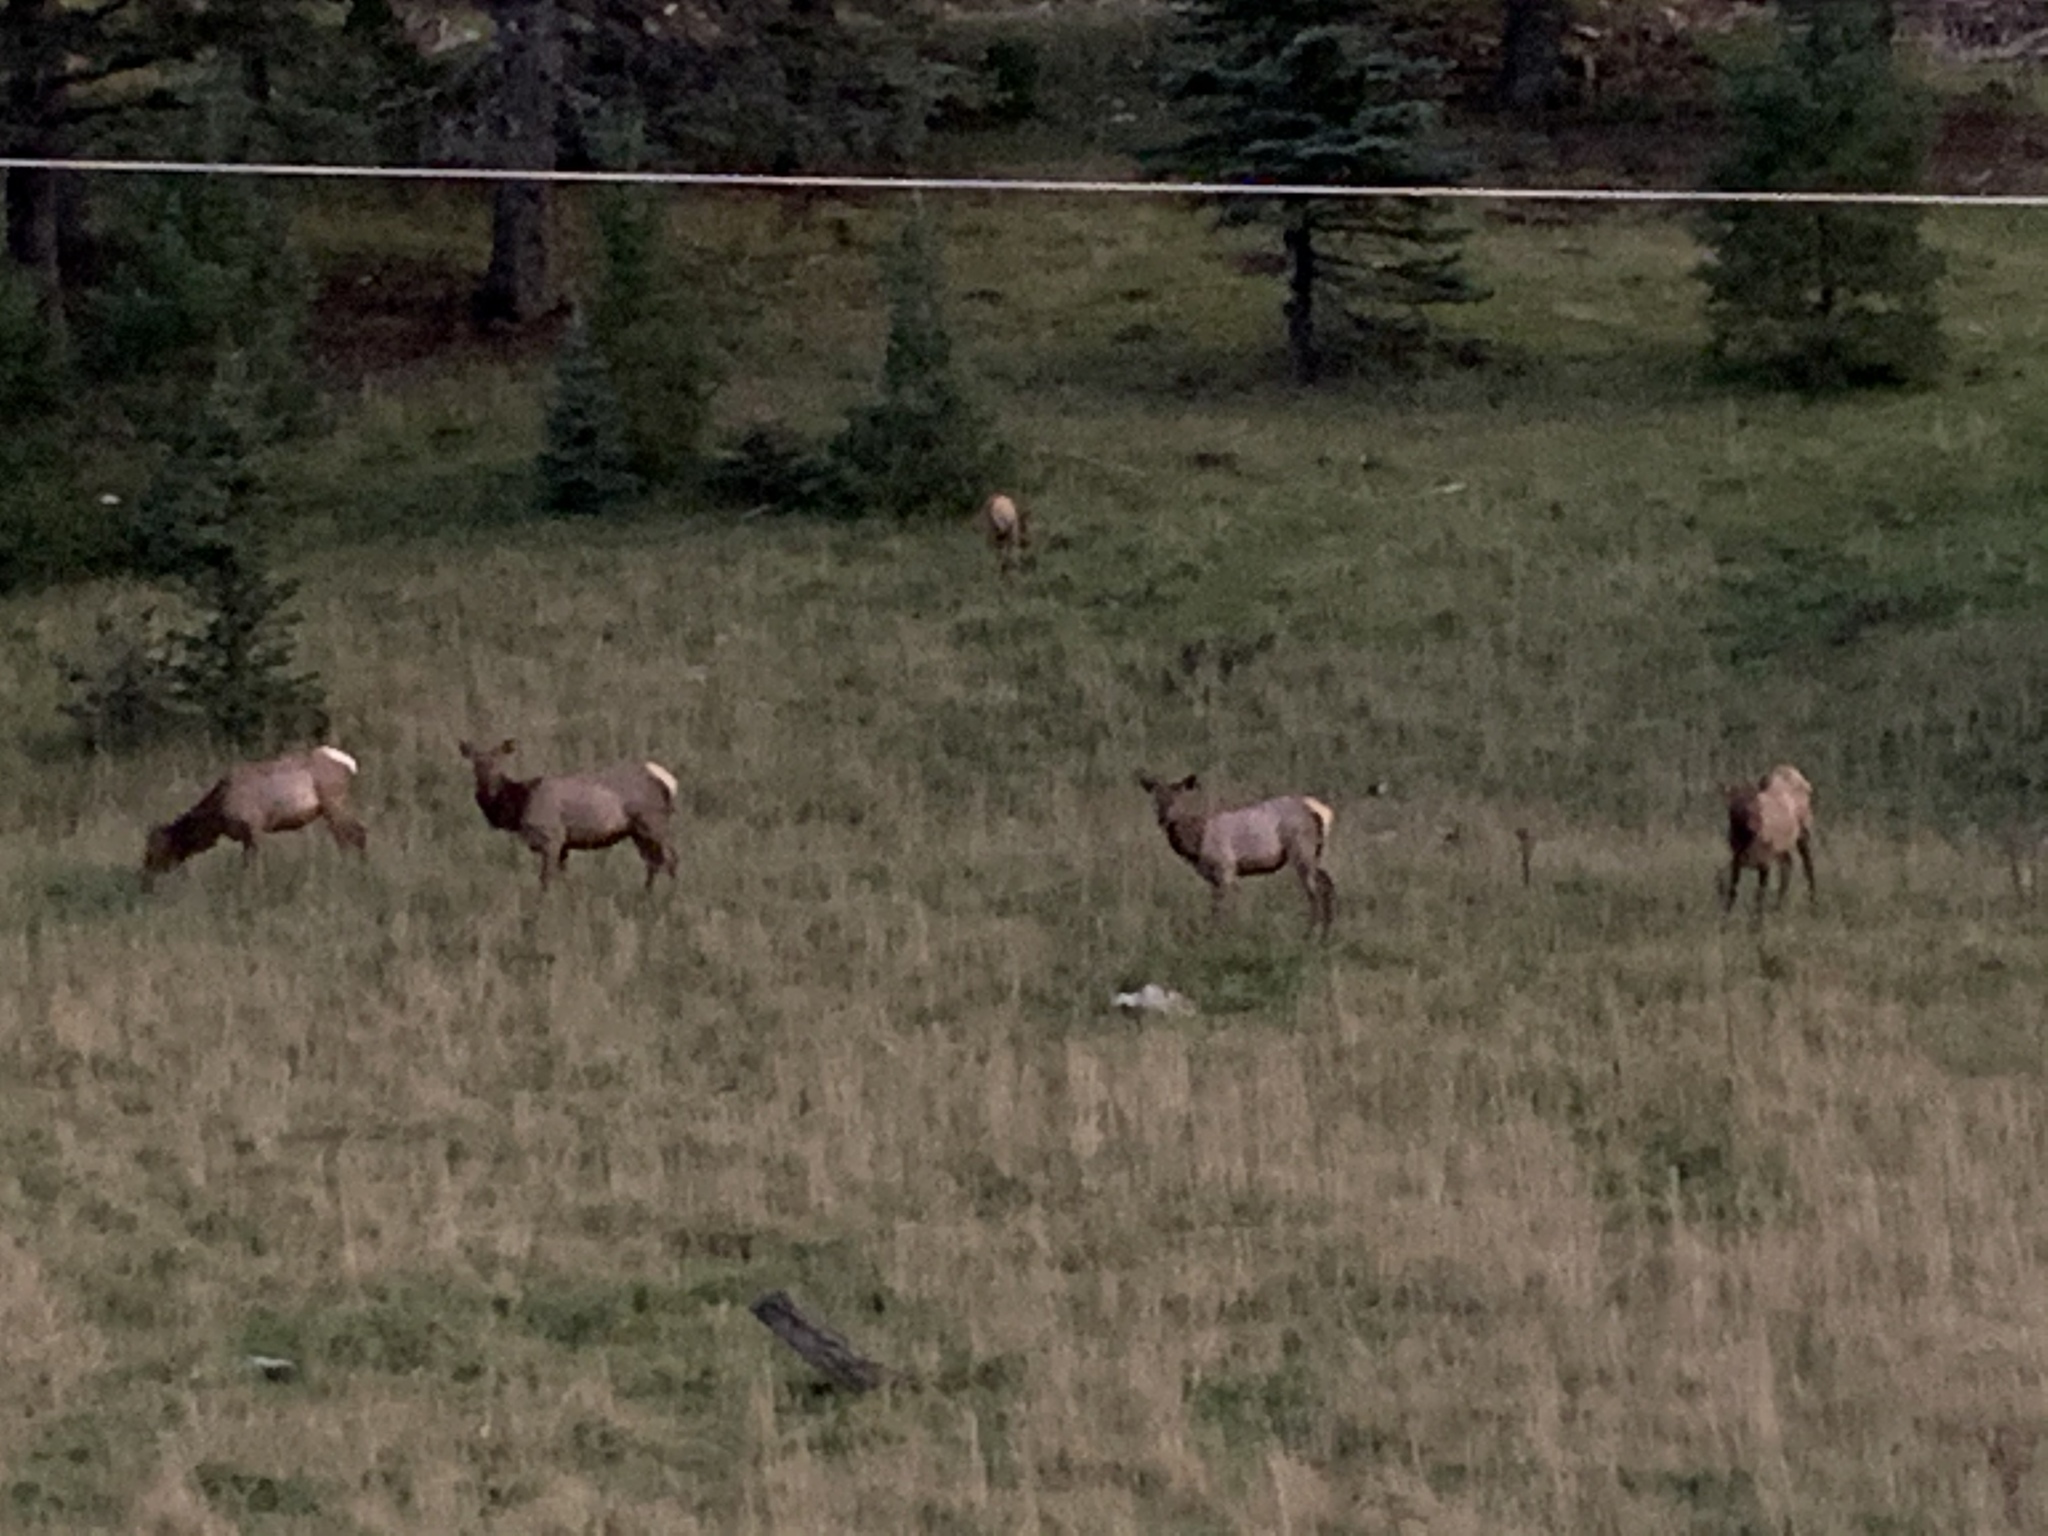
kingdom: Animalia
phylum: Chordata
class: Mammalia
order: Artiodactyla
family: Cervidae
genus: Cervus
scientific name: Cervus elaphus
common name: Red deer
